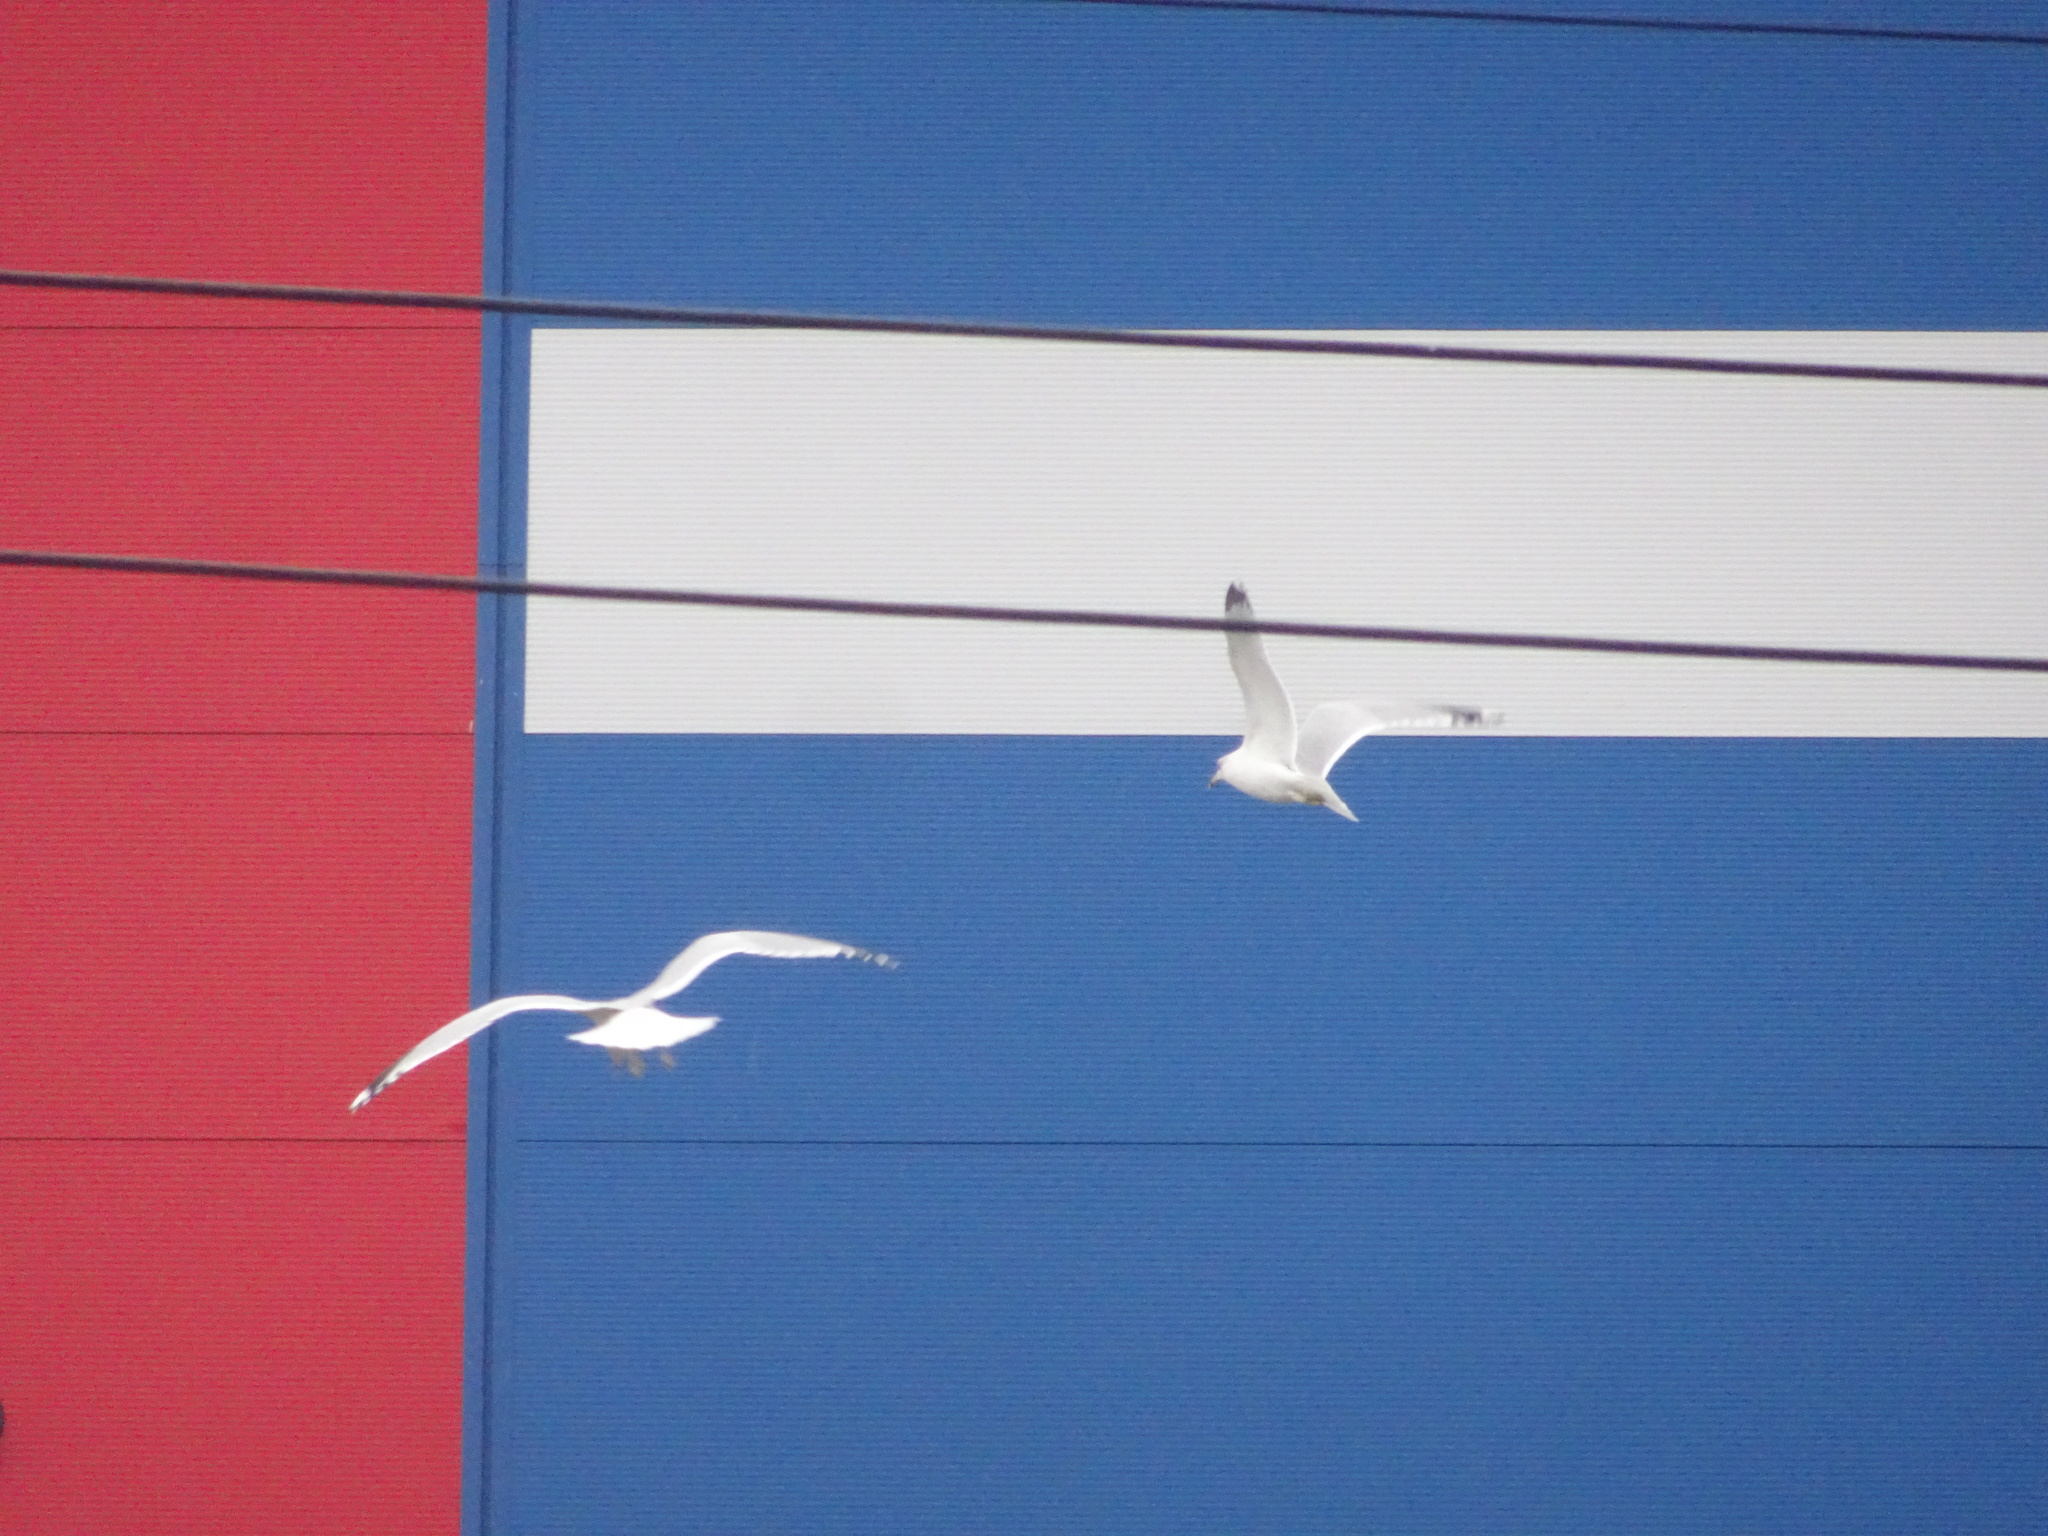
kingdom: Animalia
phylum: Chordata
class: Aves
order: Charadriiformes
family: Laridae
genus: Larus
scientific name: Larus delawarensis
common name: Ring-billed gull
